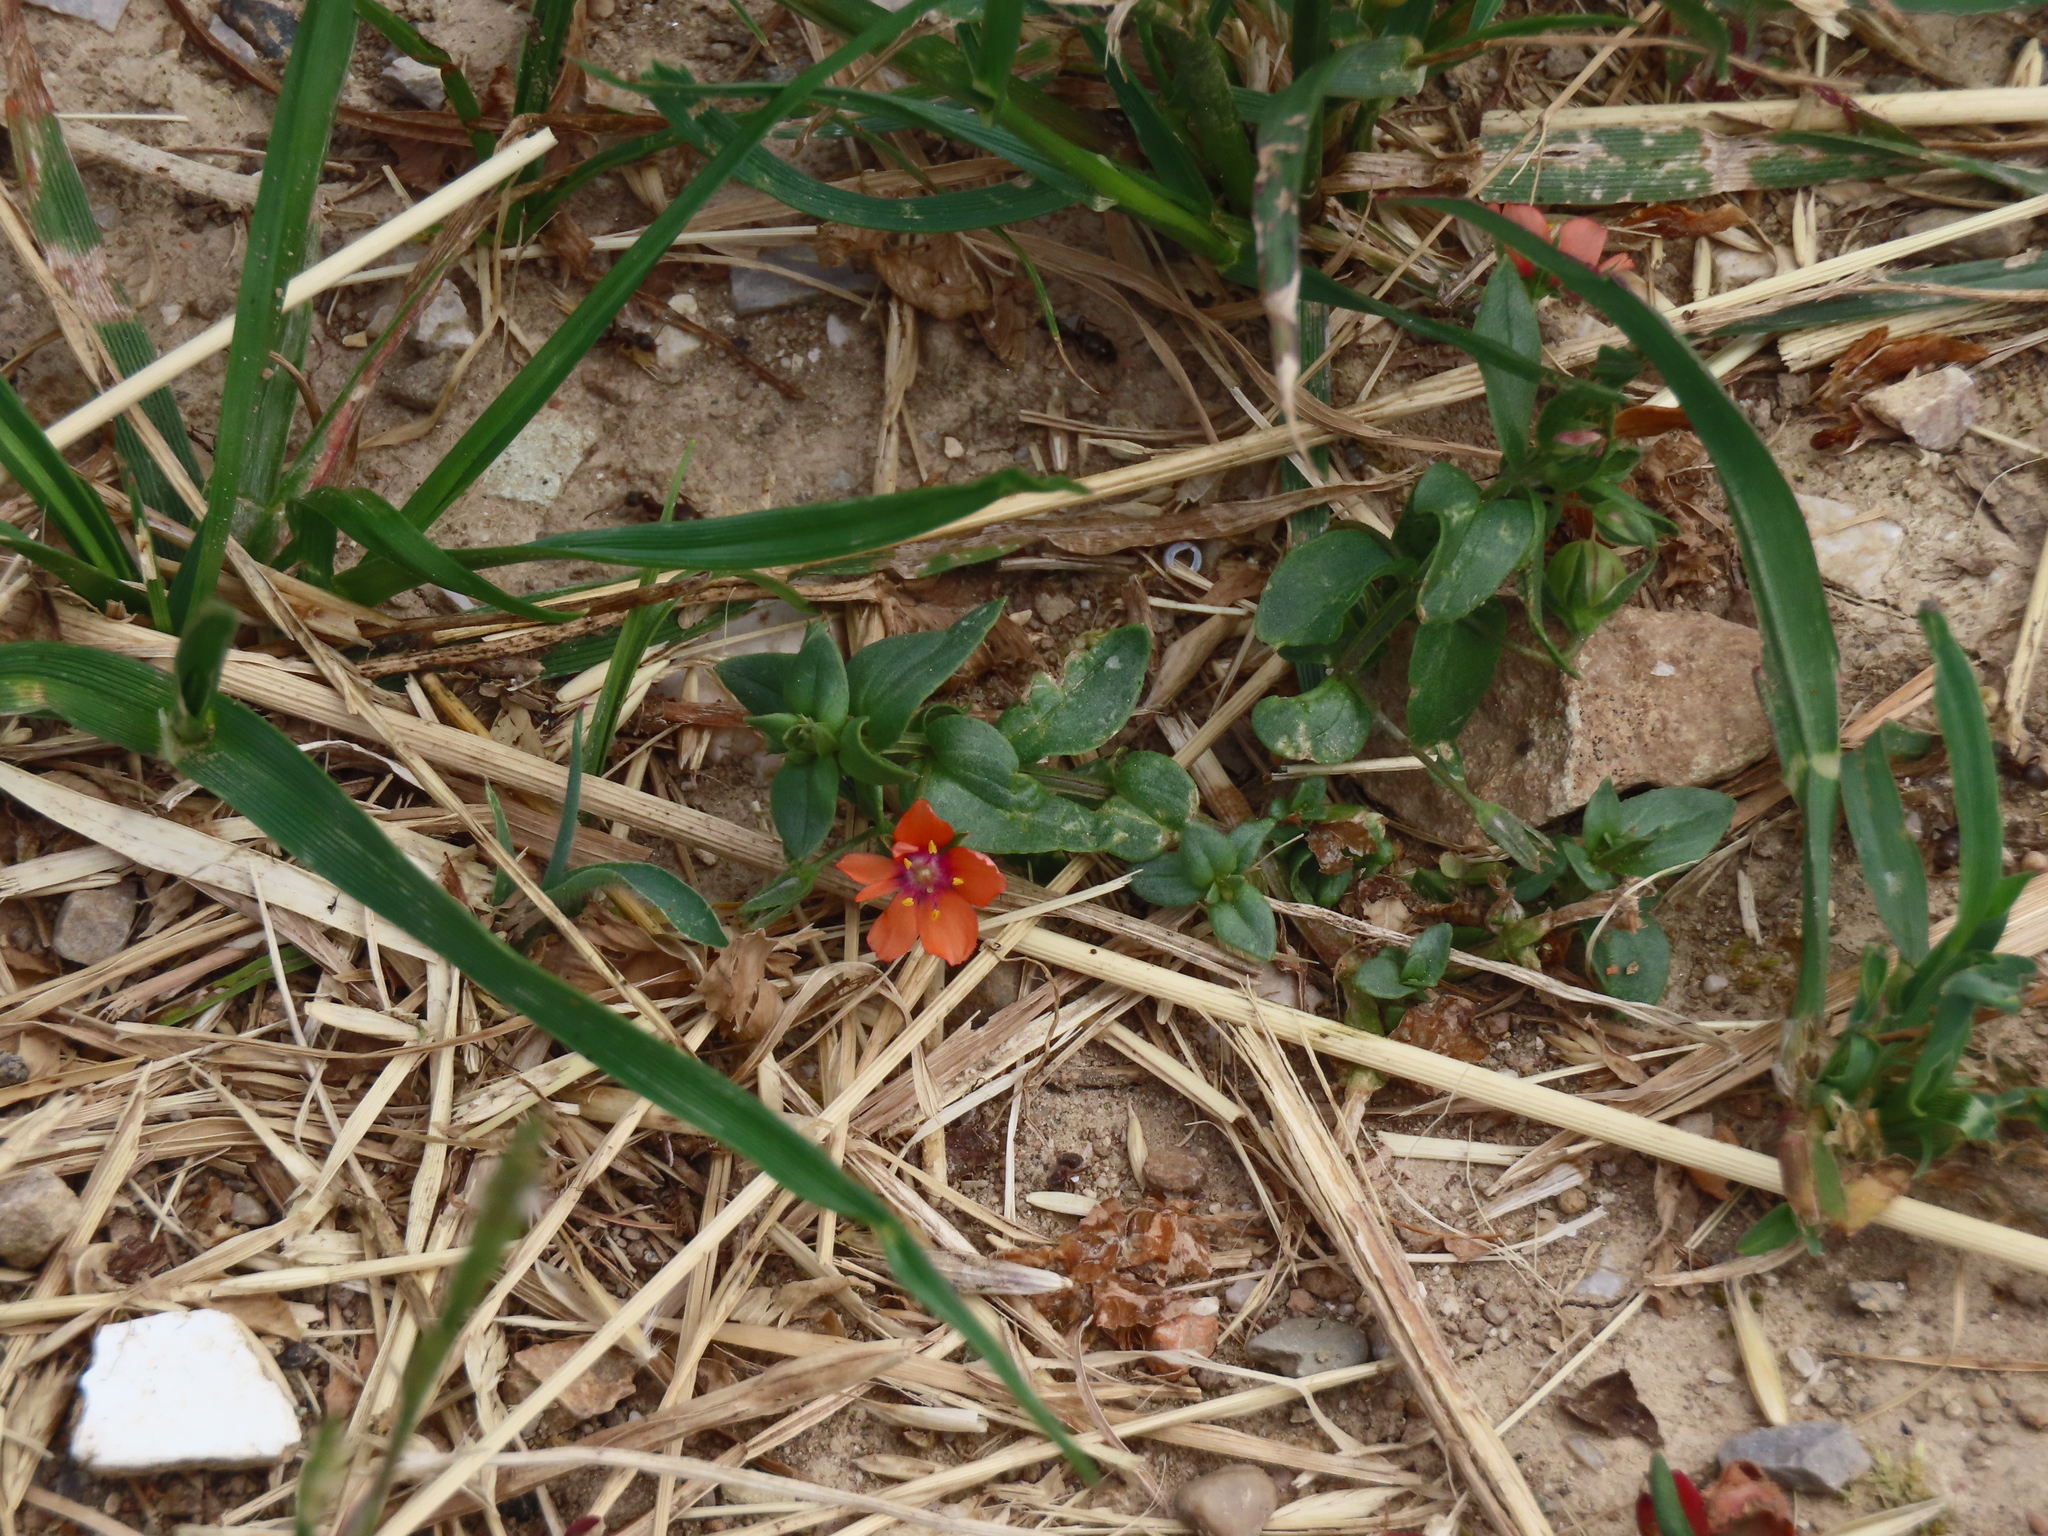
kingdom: Plantae
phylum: Tracheophyta
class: Magnoliopsida
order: Ericales
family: Primulaceae
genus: Lysimachia
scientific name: Lysimachia arvensis
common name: Scarlet pimpernel
